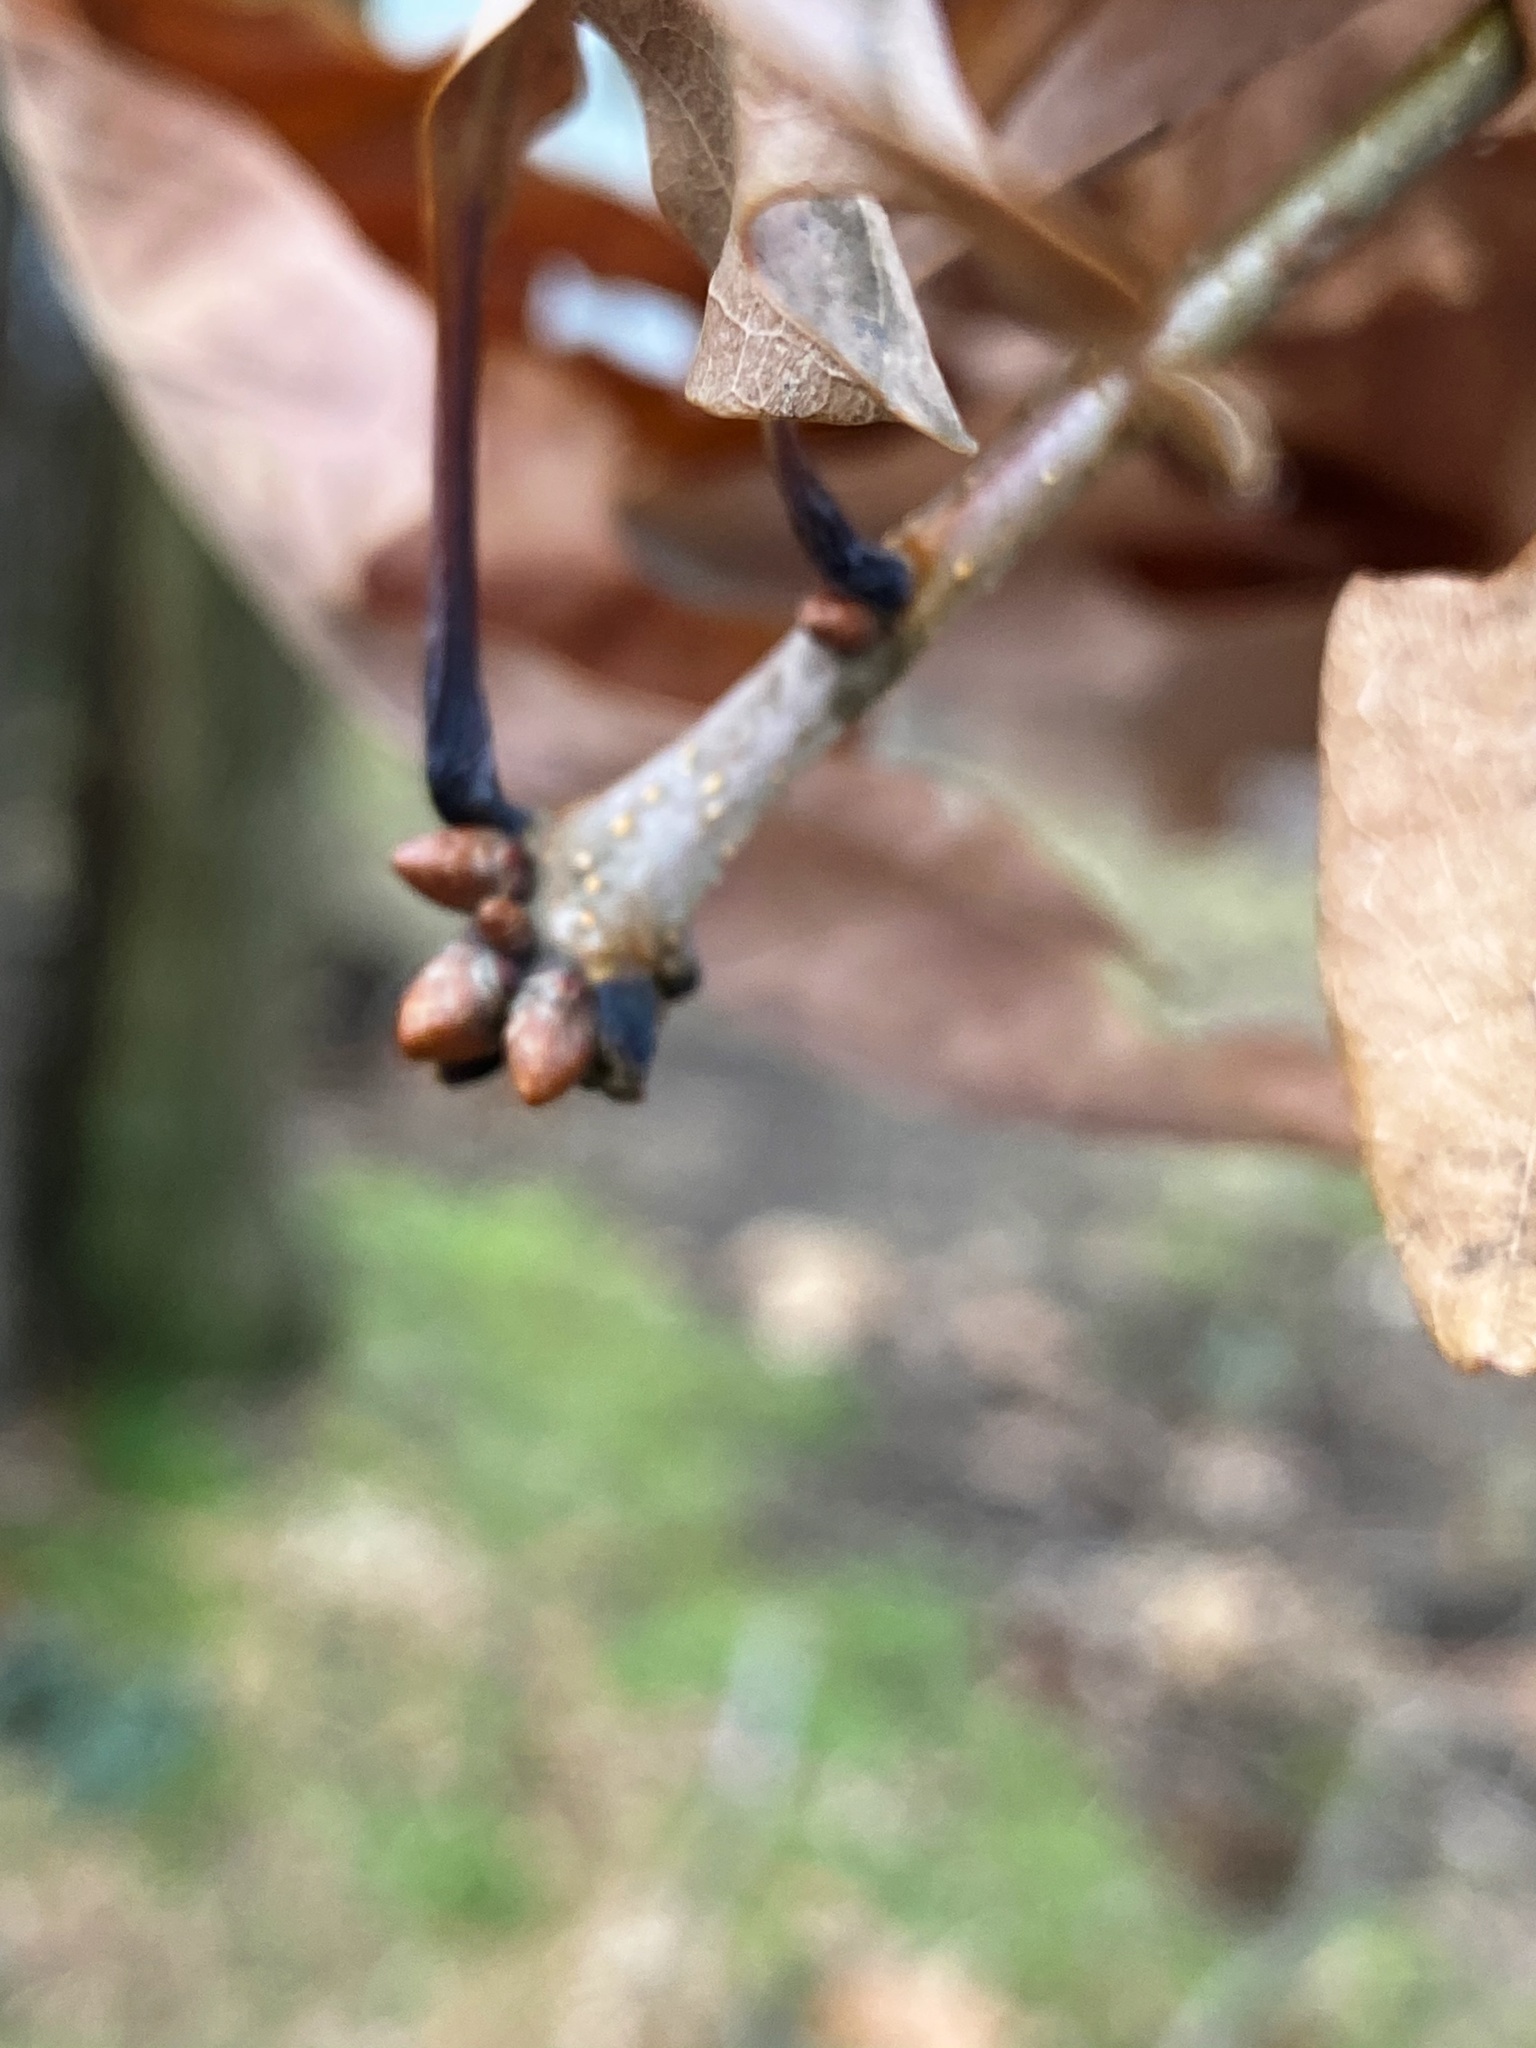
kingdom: Plantae
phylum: Tracheophyta
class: Magnoliopsida
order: Fagales
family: Fagaceae
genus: Quercus
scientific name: Quercus alba
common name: White oak
